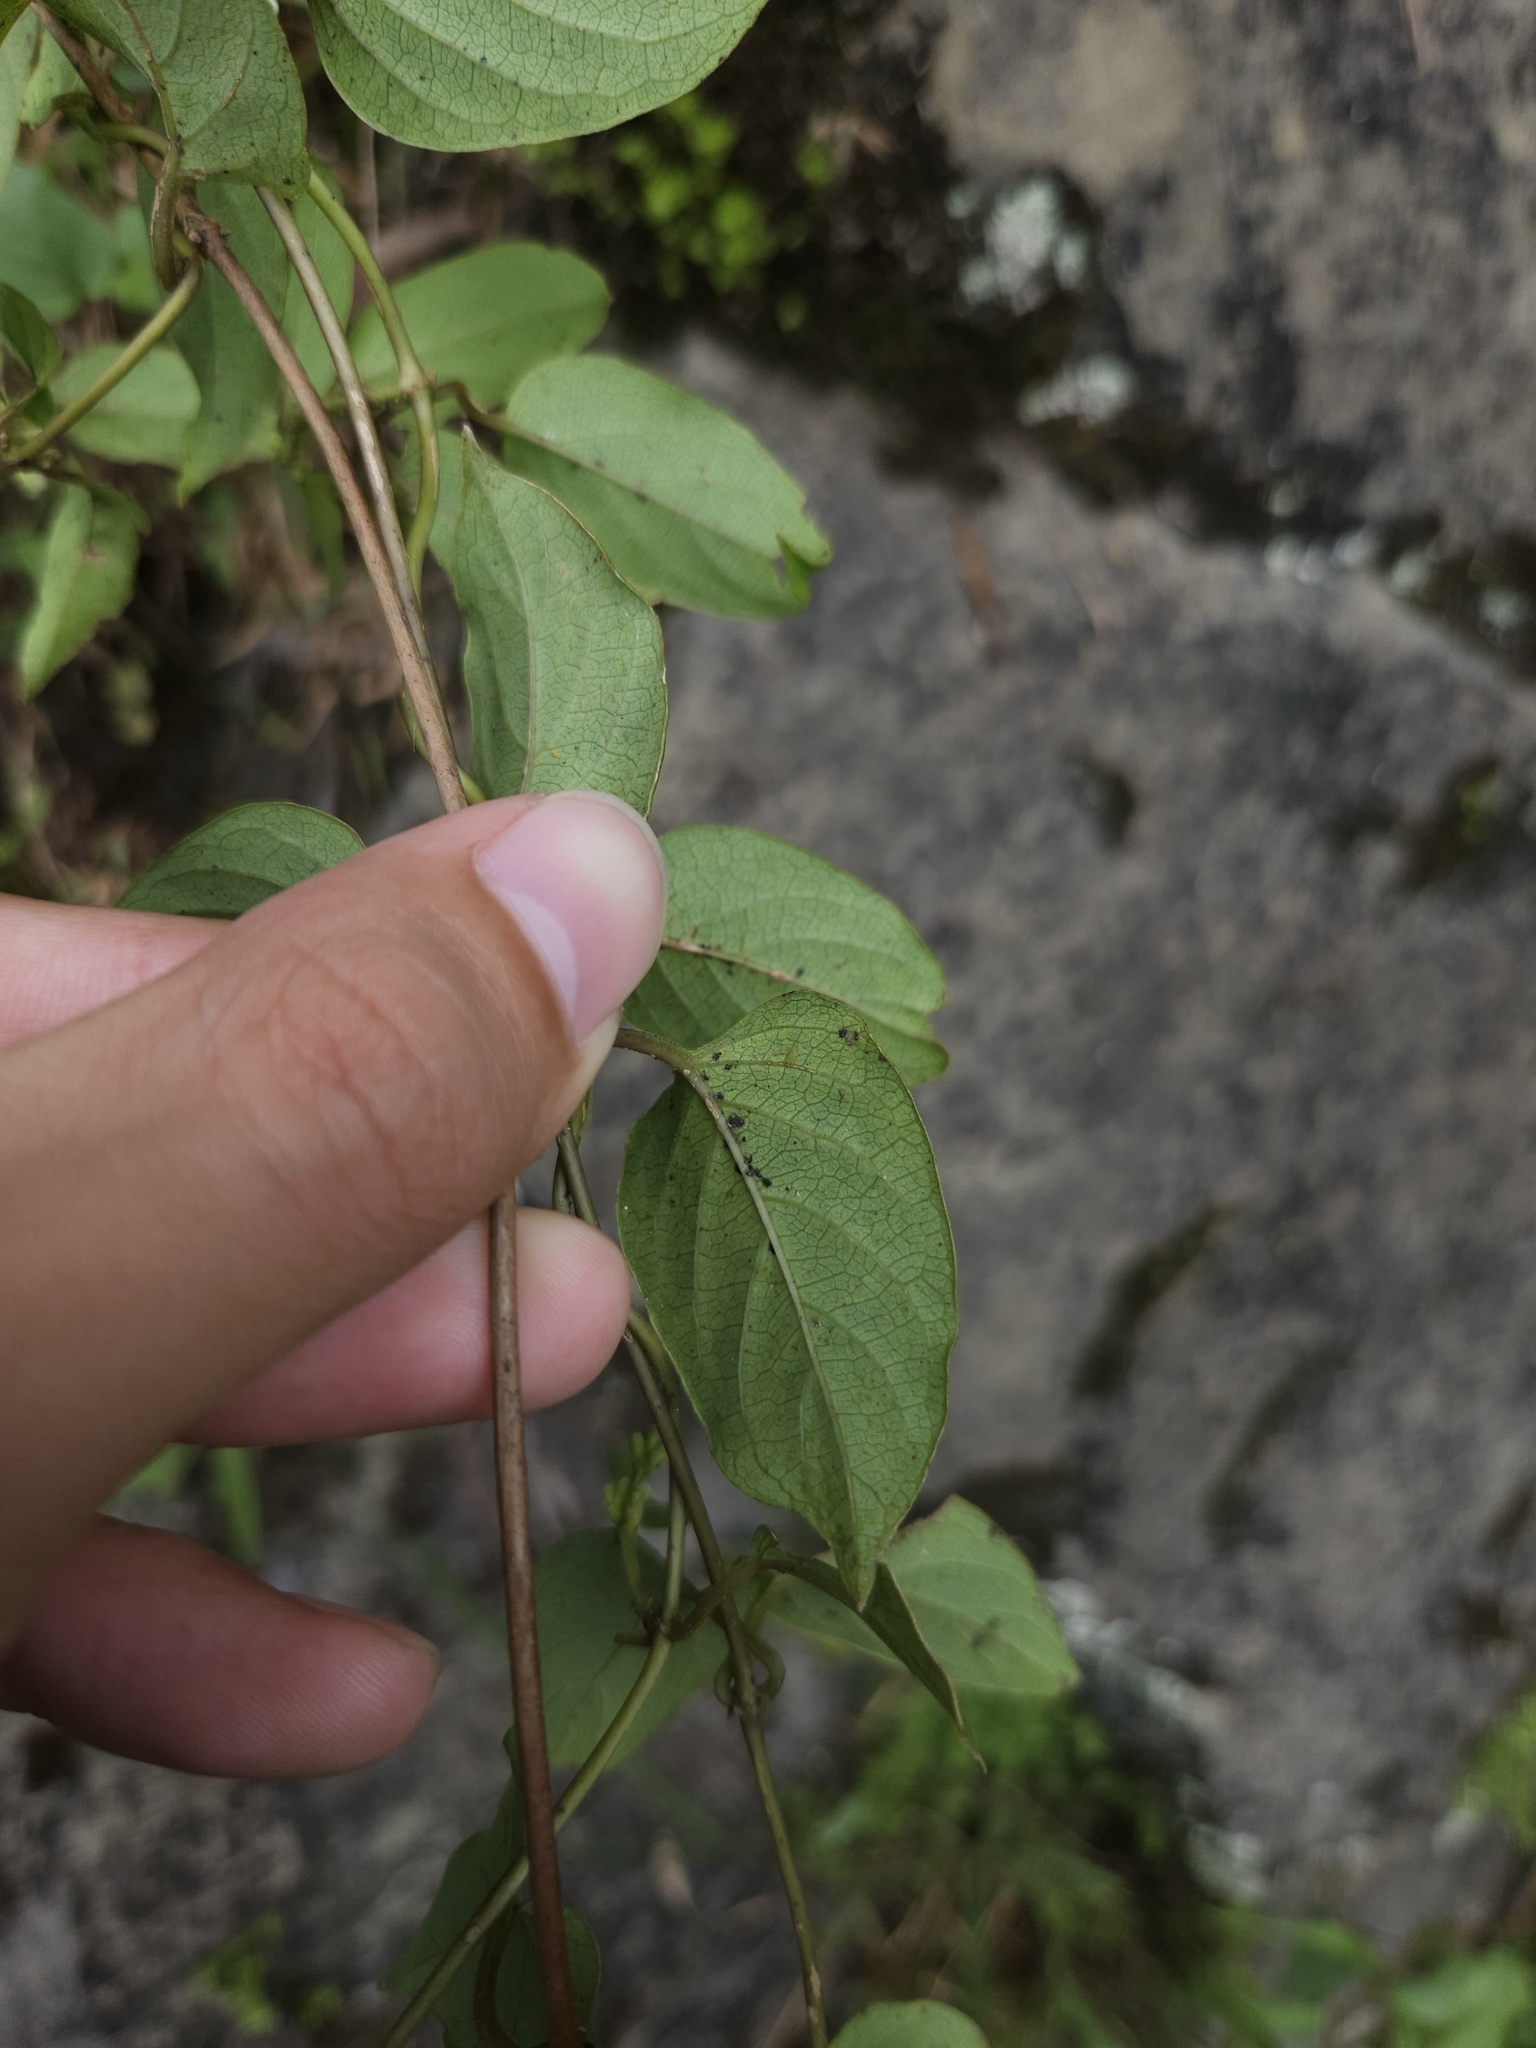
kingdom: Plantae
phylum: Tracheophyta
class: Magnoliopsida
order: Gentianales
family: Rubiaceae
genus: Paederia
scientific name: Paederia foetida
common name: Stinkvine
